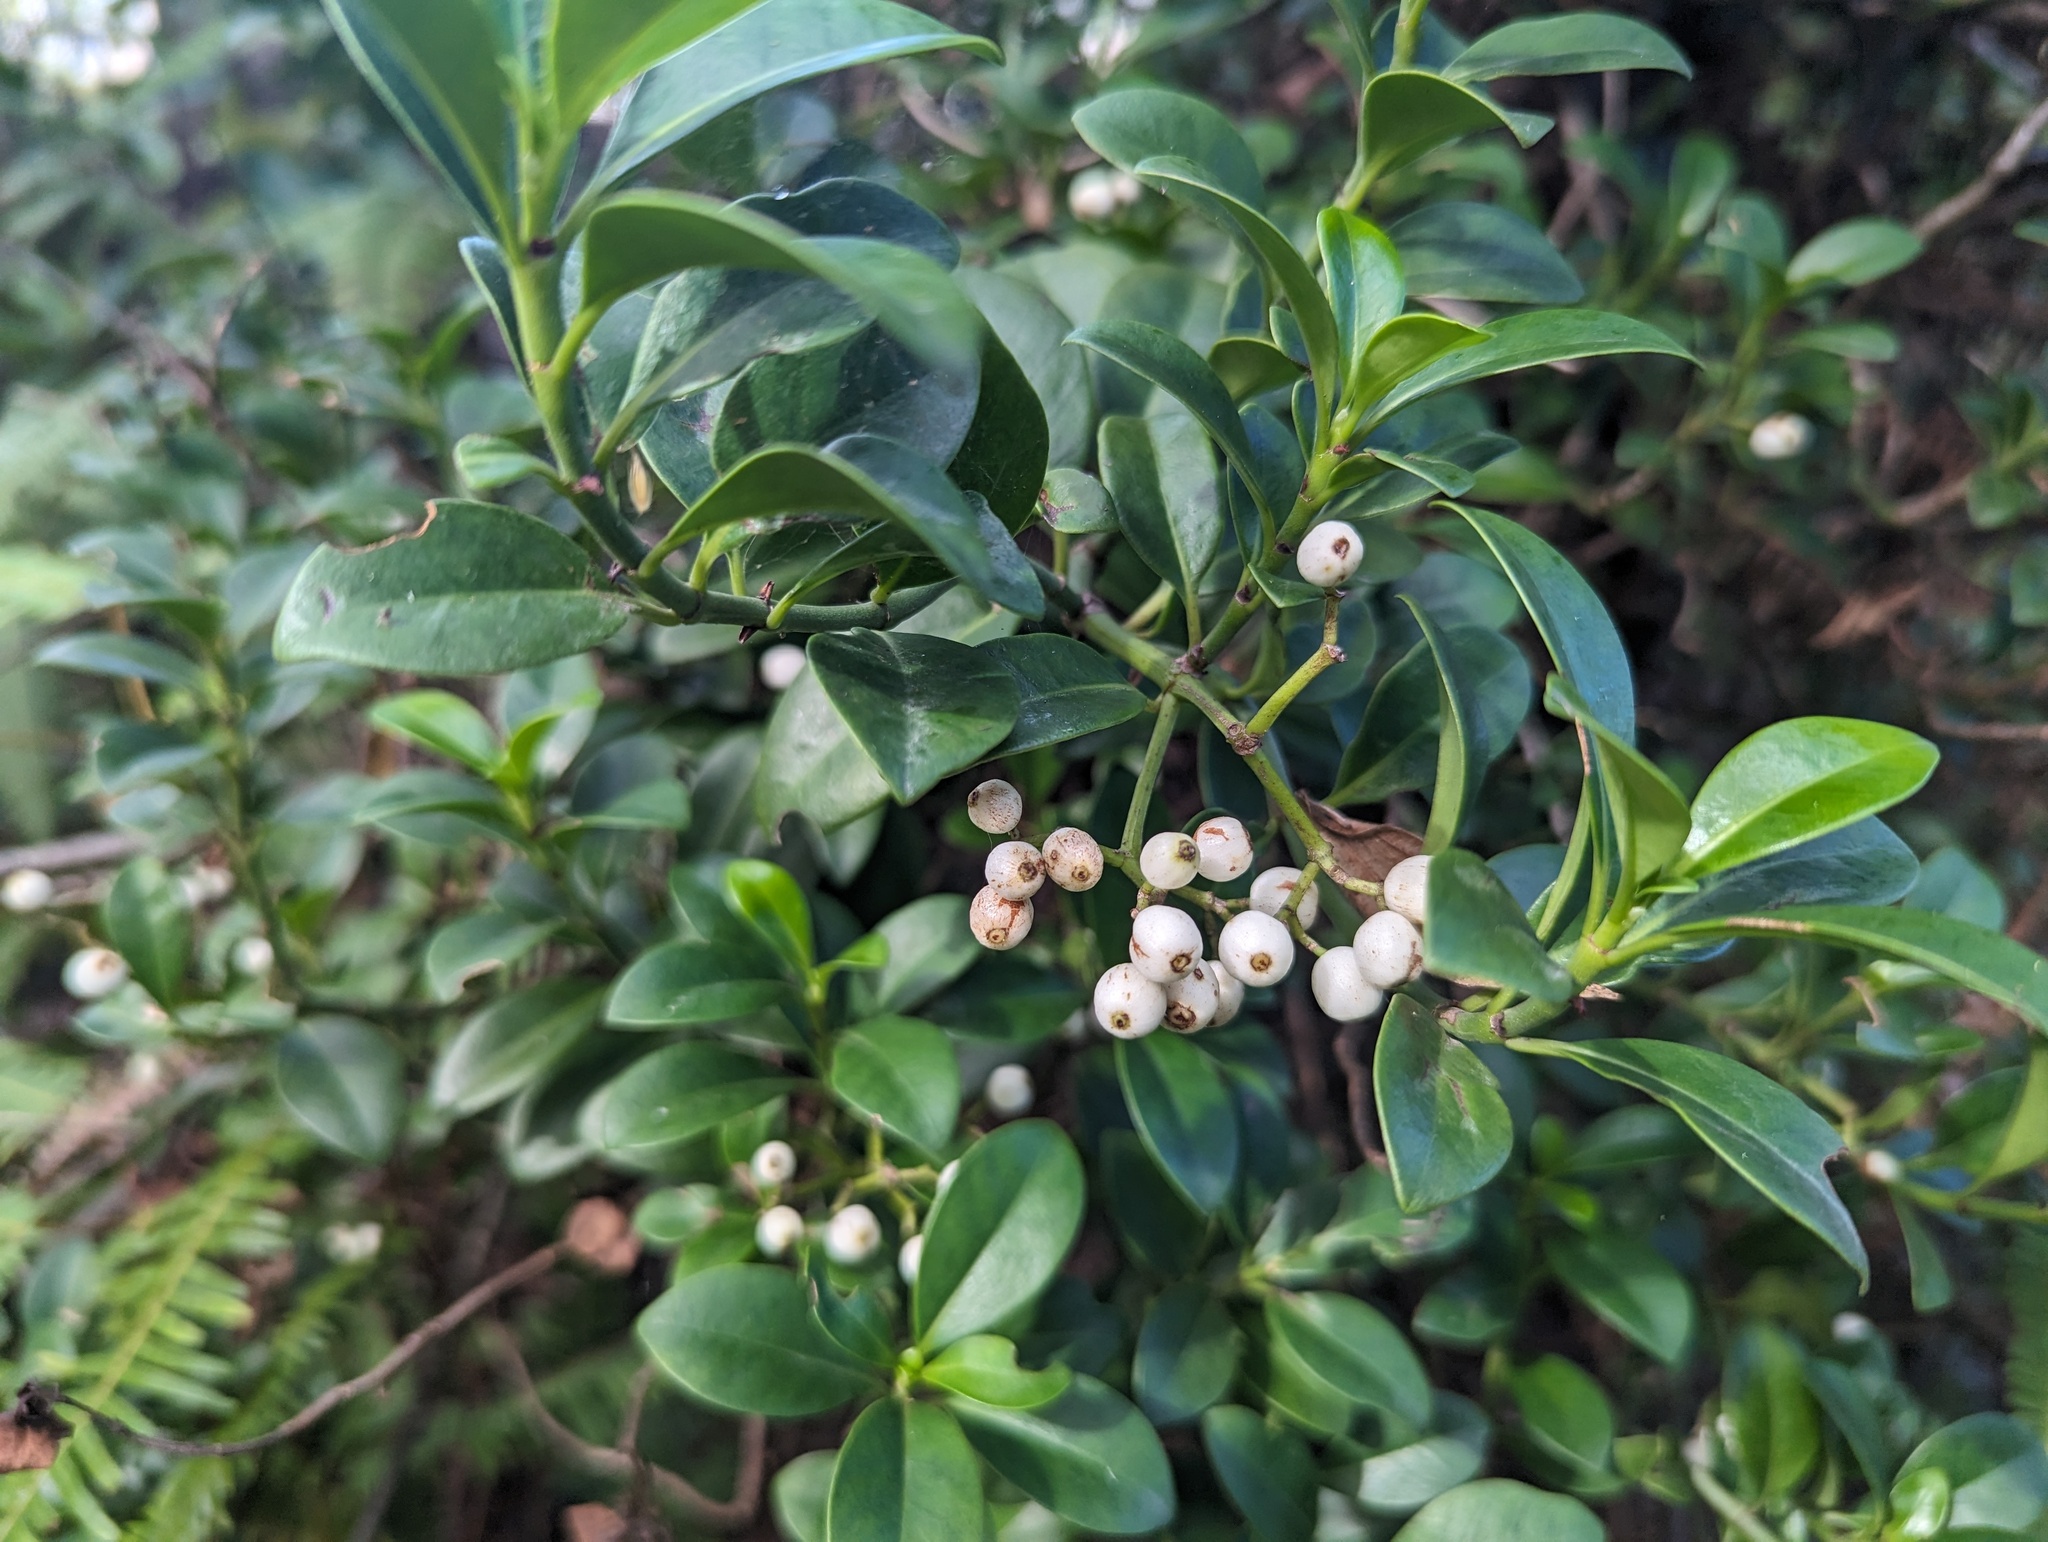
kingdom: Plantae
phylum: Tracheophyta
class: Magnoliopsida
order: Gentianales
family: Rubiaceae
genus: Psychotria
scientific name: Psychotria serpens
